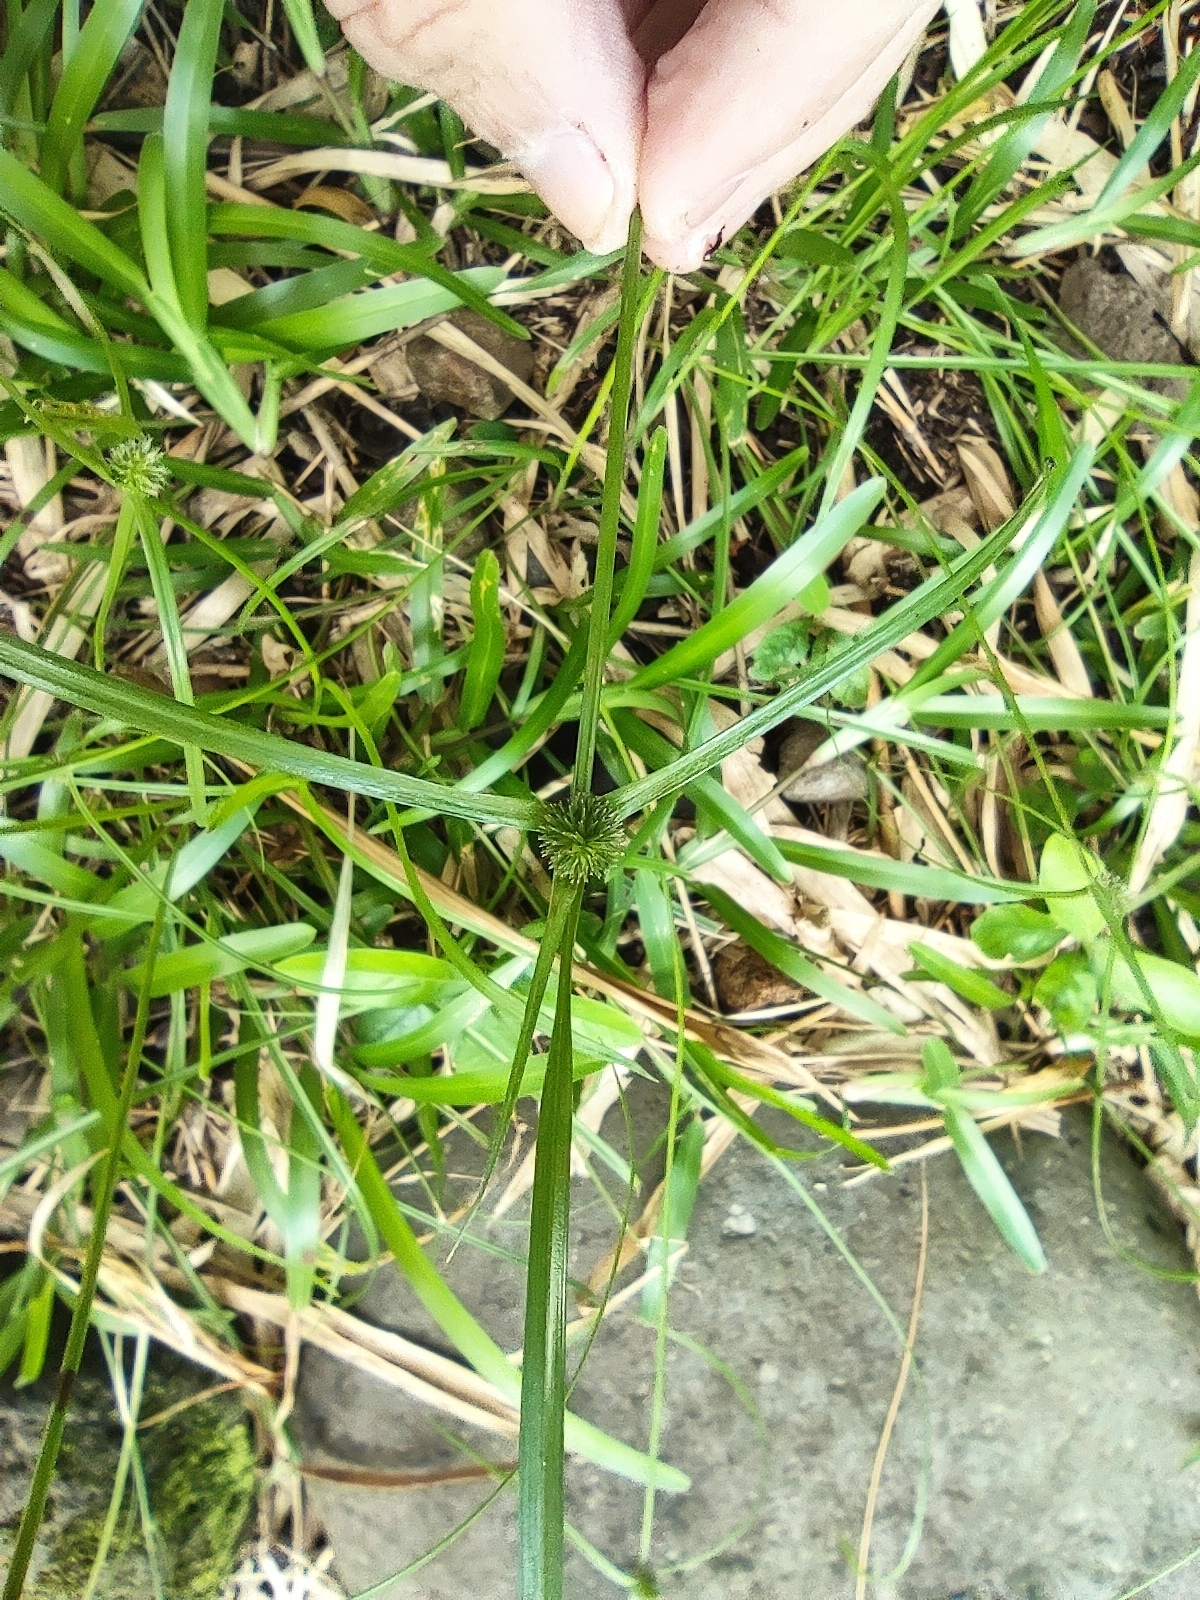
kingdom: Plantae
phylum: Tracheophyta
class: Liliopsida
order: Poales
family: Cyperaceae
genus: Cyperus
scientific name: Cyperus brevifolius
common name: Globe kyllinga
